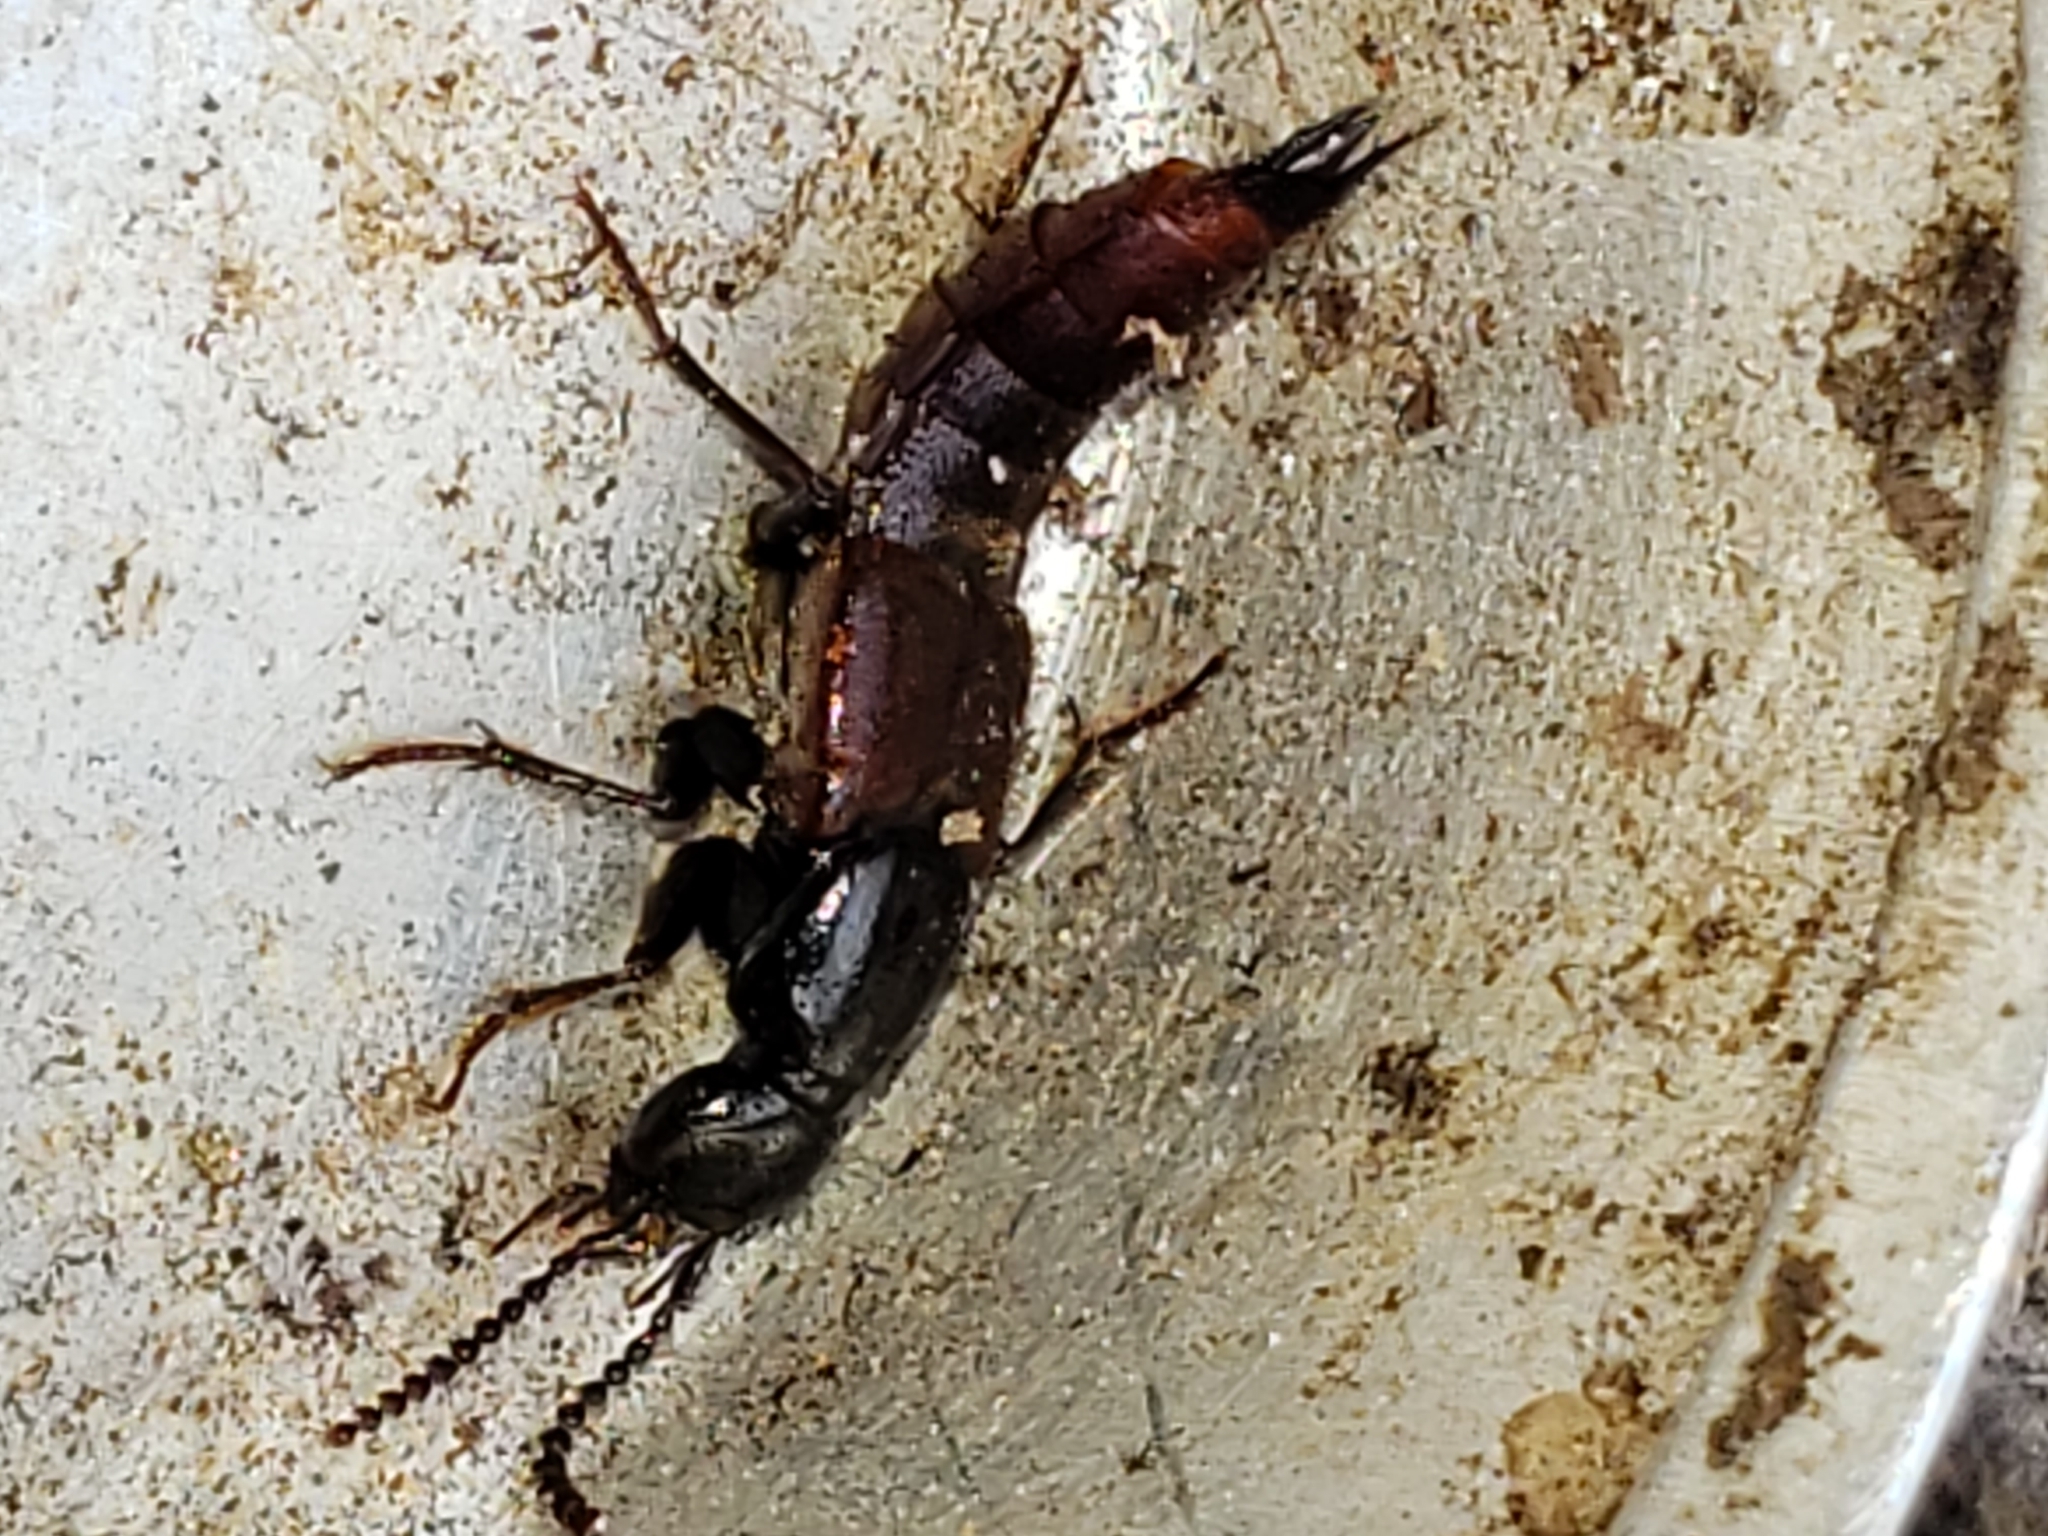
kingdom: Animalia
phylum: Arthropoda
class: Insecta
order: Coleoptera
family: Staphylinidae
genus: Hesperus
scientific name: Hesperus baltimorensis
